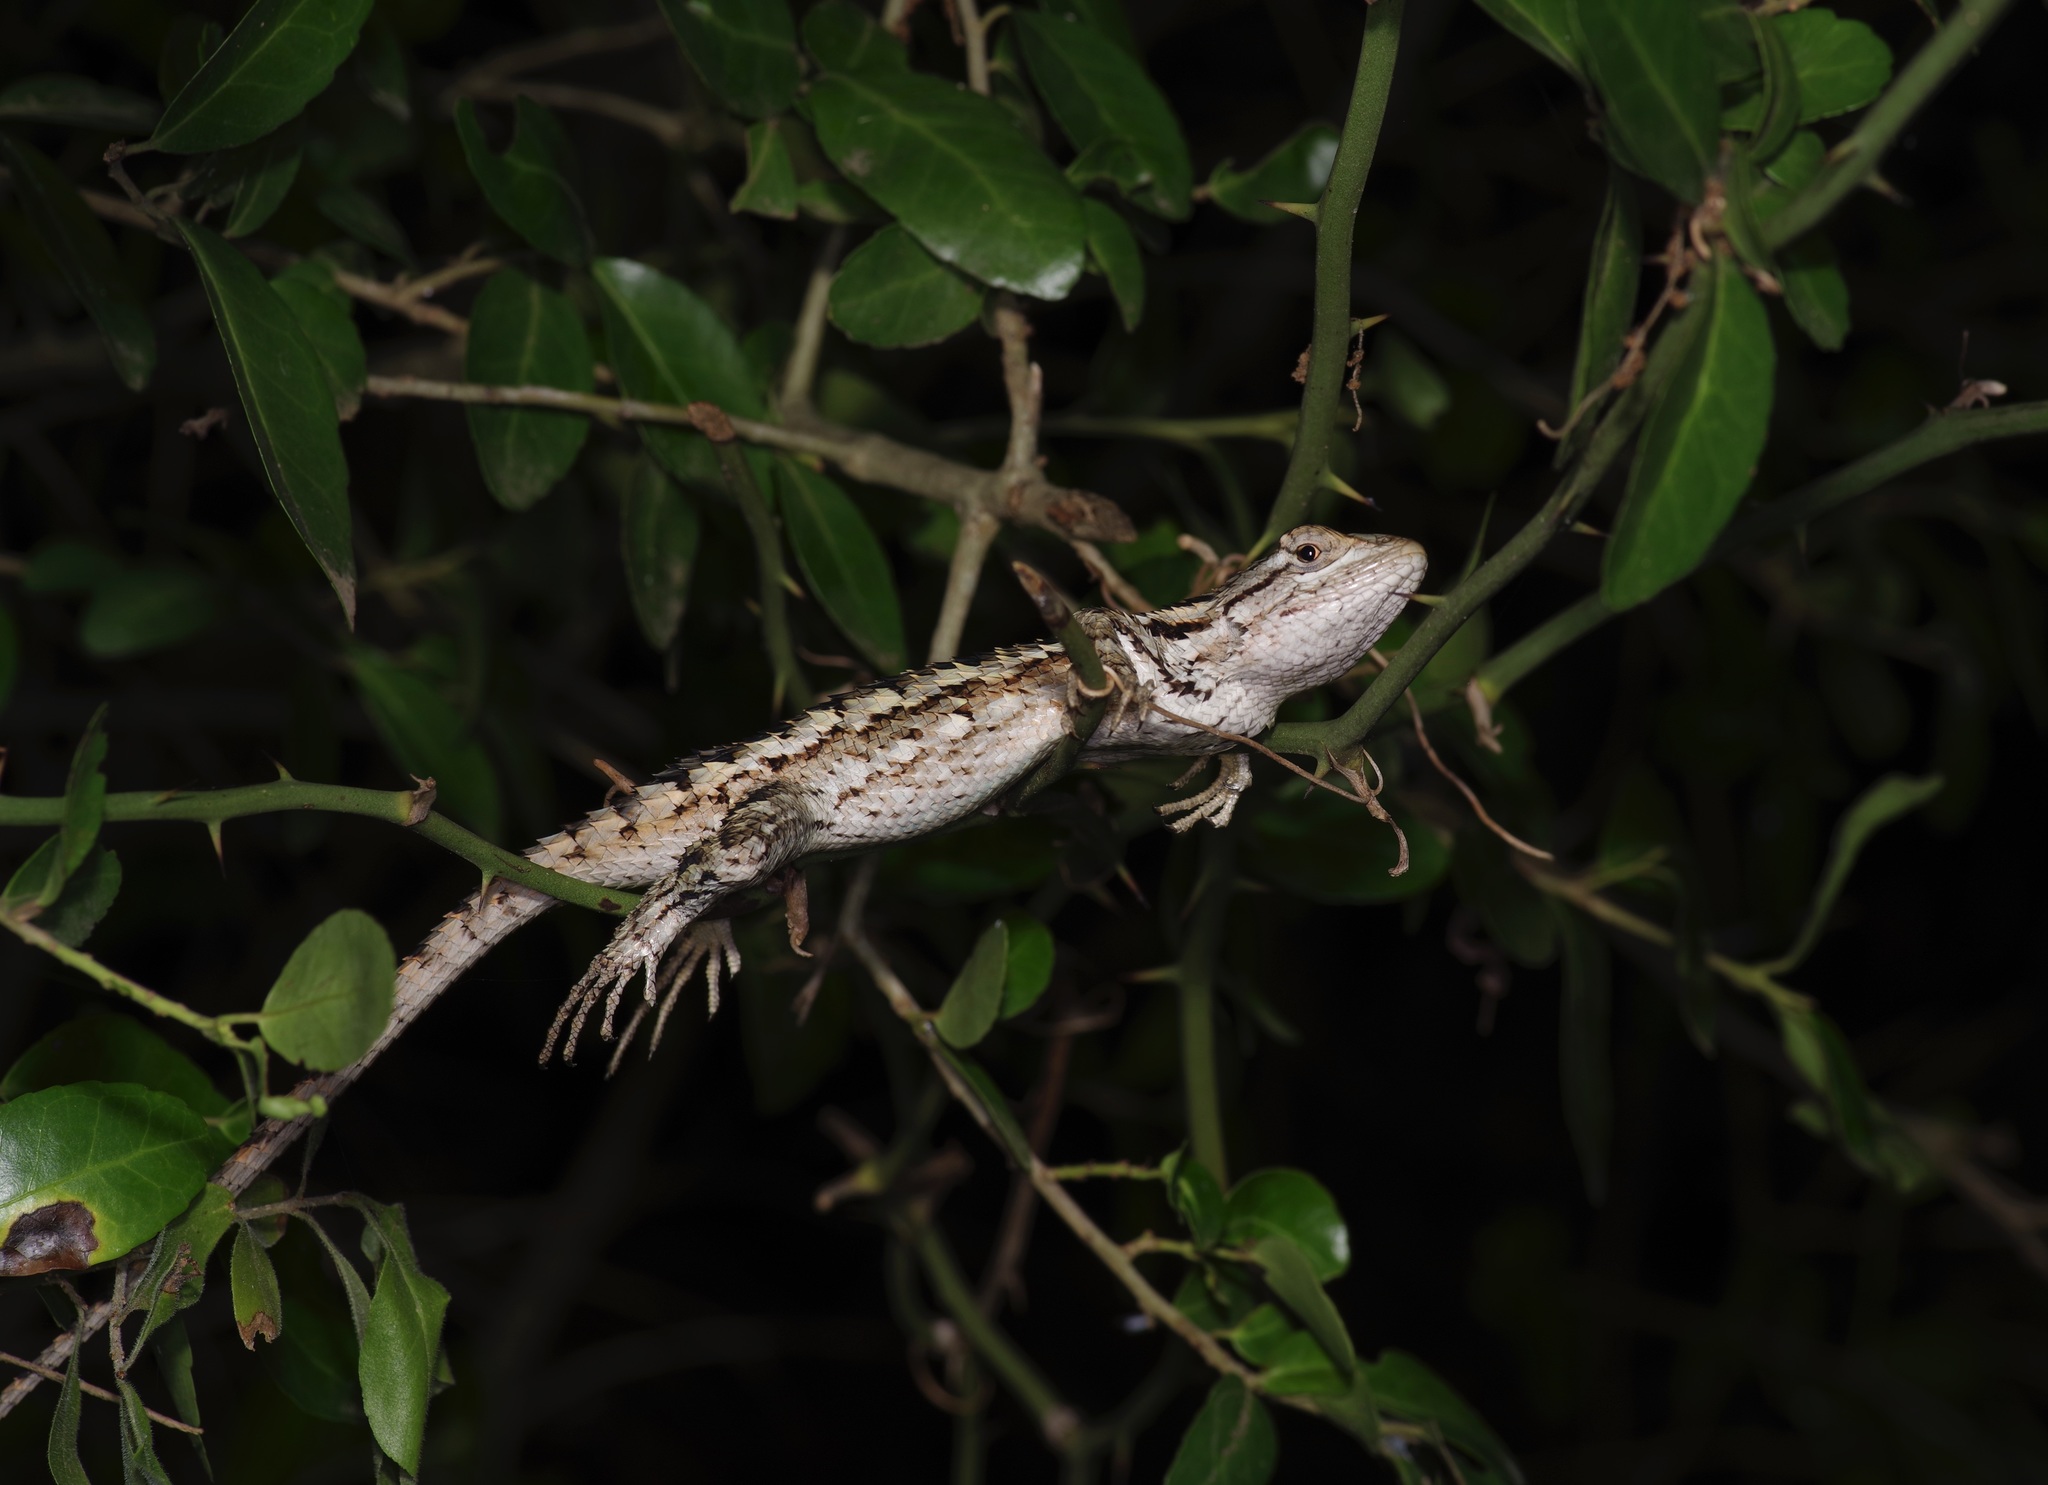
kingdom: Animalia
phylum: Chordata
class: Squamata
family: Phrynosomatidae
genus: Sceloporus
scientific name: Sceloporus olivaceus
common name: Texas spiny lizard
